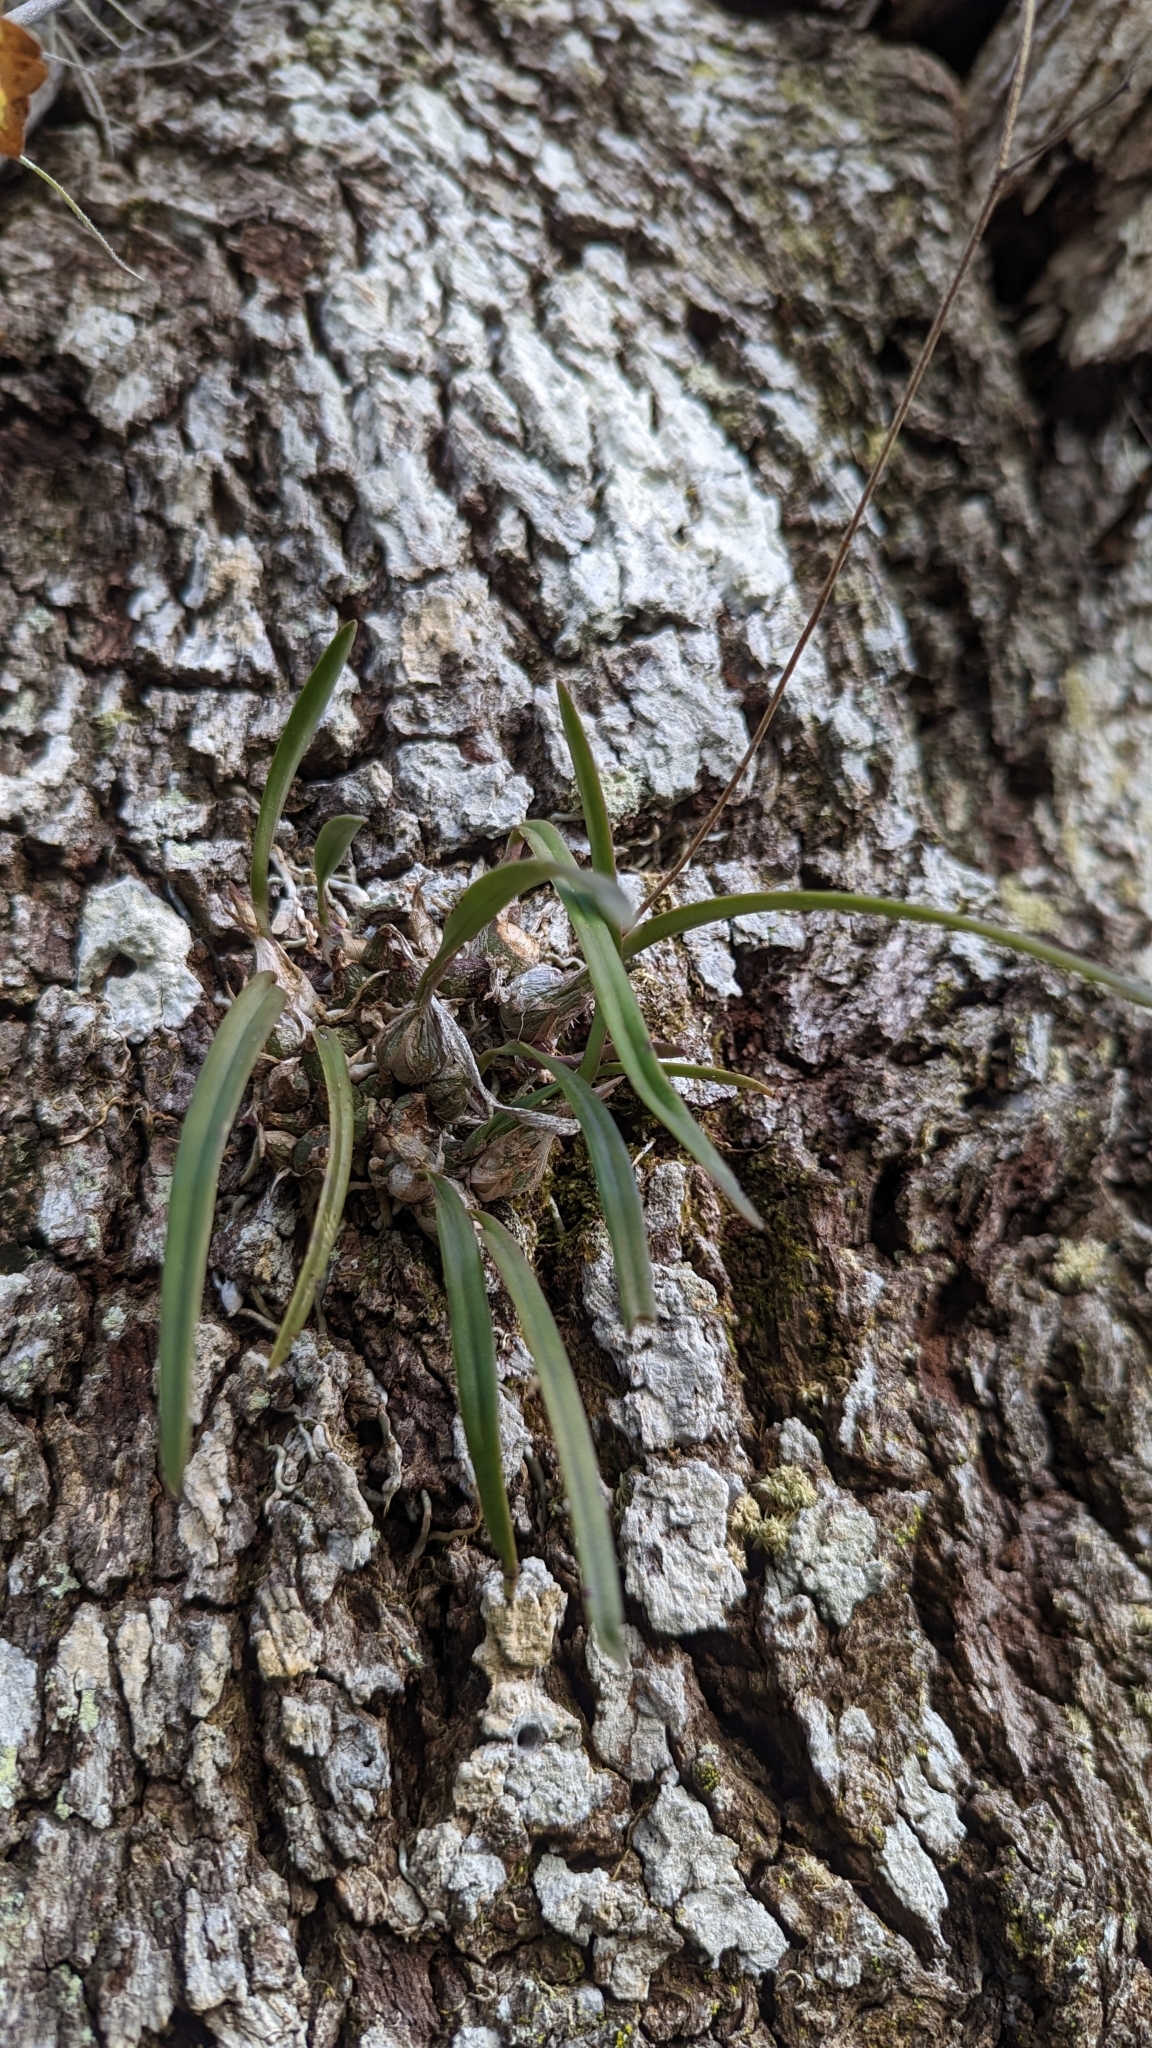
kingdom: Plantae
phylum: Tracheophyta
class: Liliopsida
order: Asparagales
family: Orchidaceae
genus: Encyclia
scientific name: Encyclia tampensis
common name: Florida butterfly orchid
